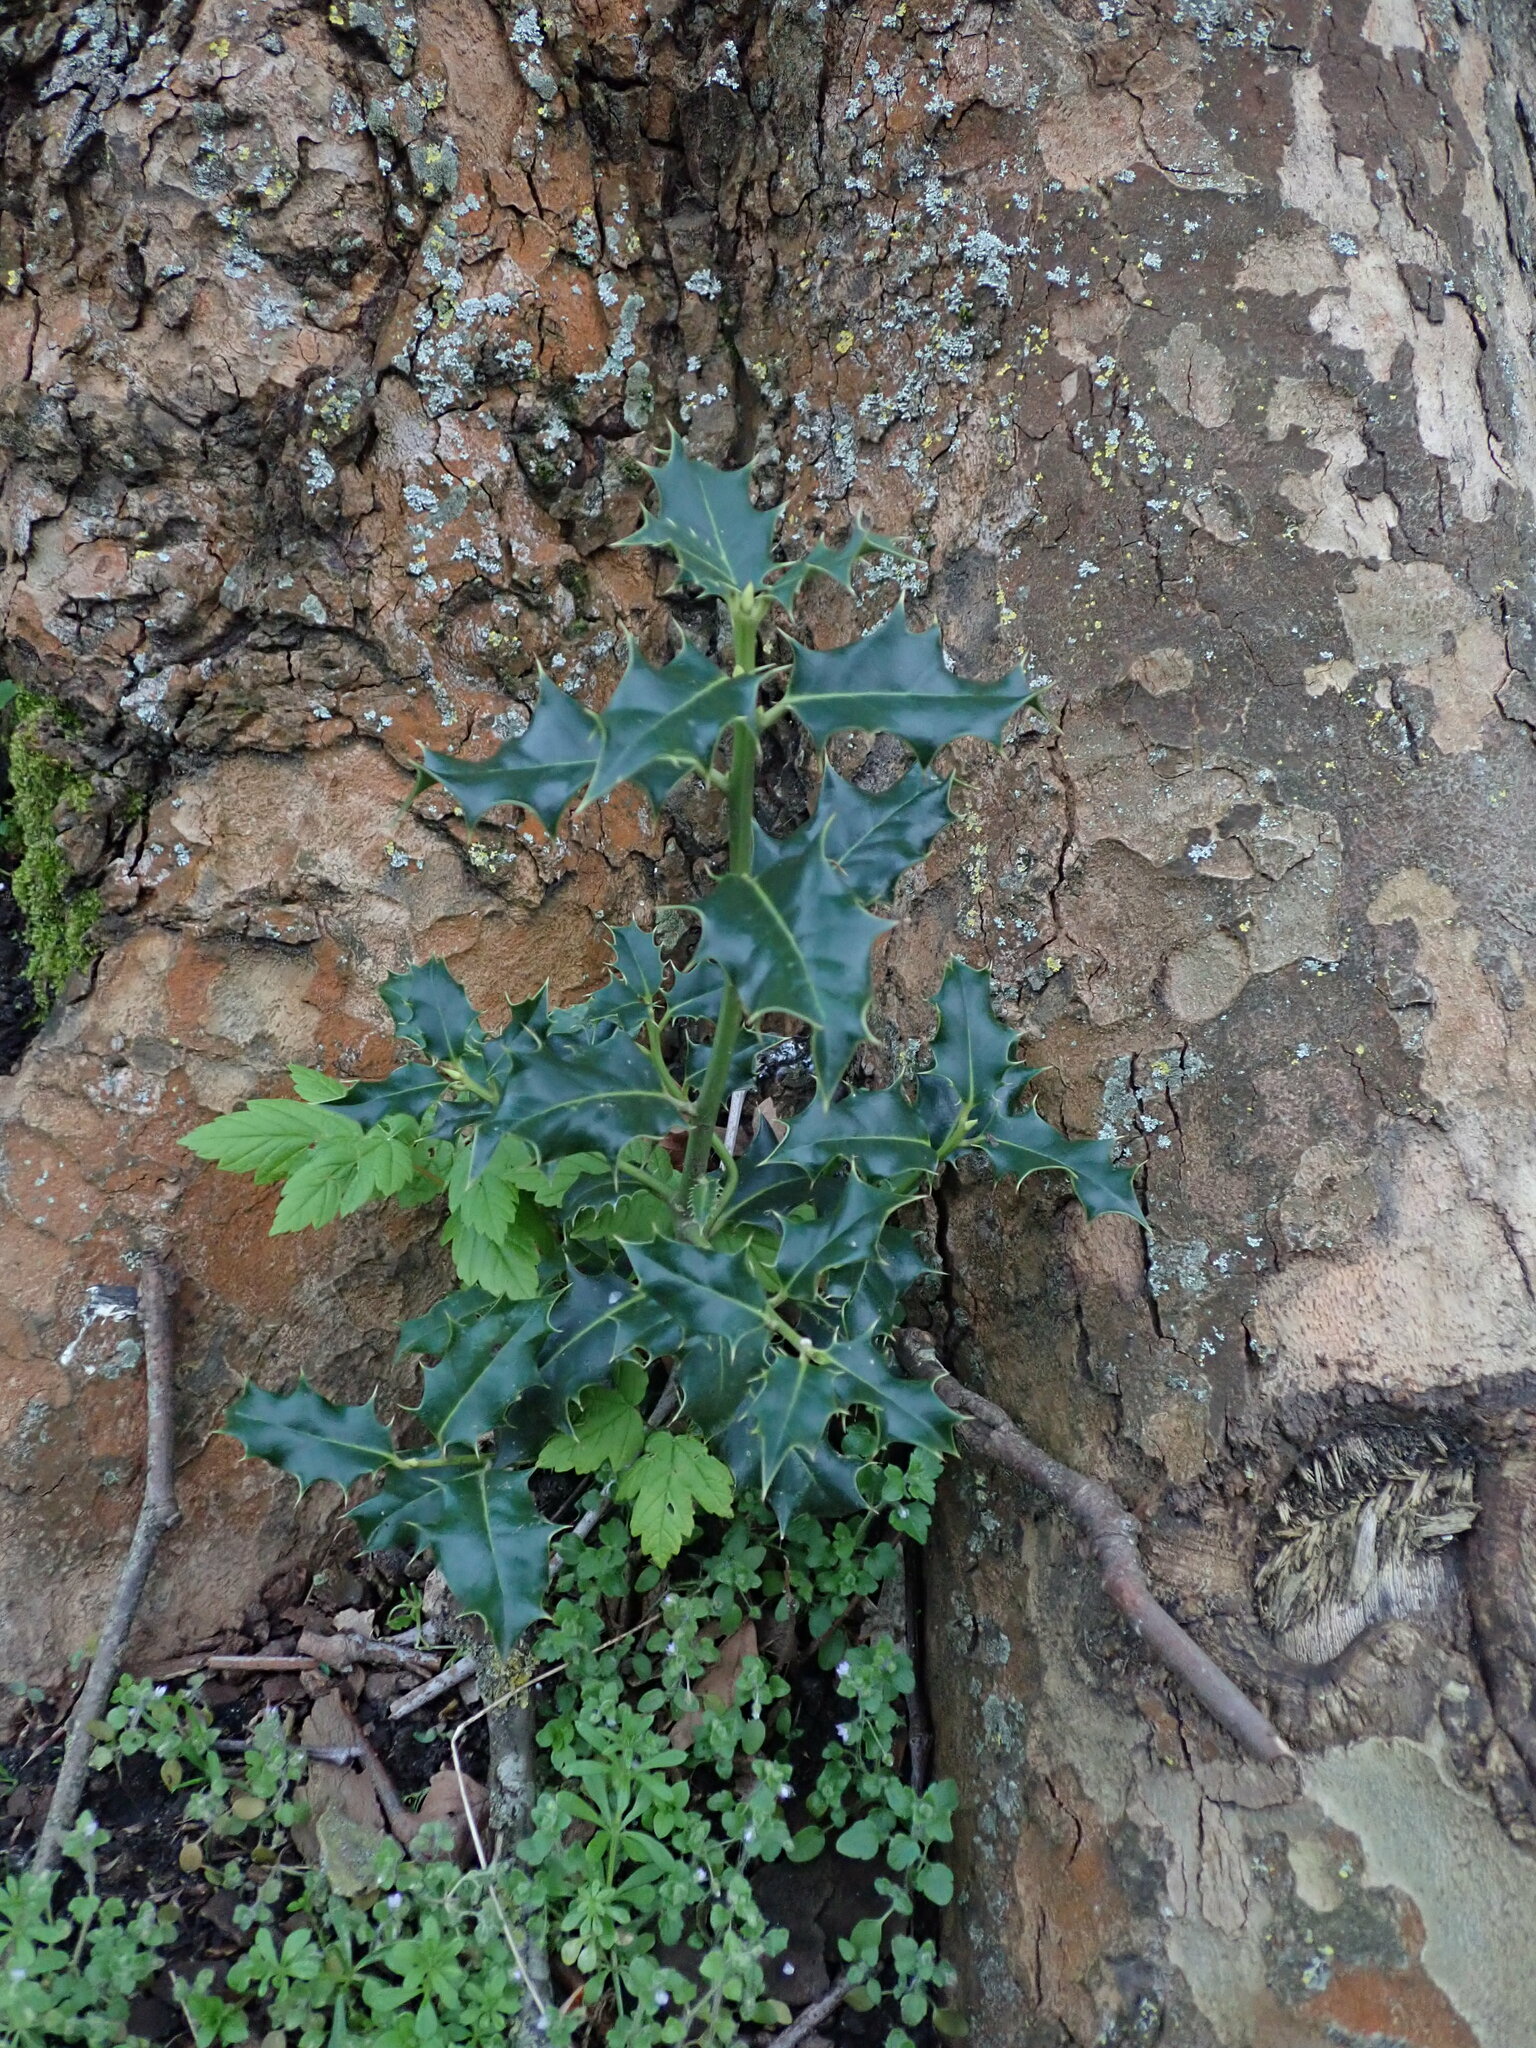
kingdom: Plantae
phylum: Tracheophyta
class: Magnoliopsida
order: Aquifoliales
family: Aquifoliaceae
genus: Ilex
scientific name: Ilex aquifolium
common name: English holly
